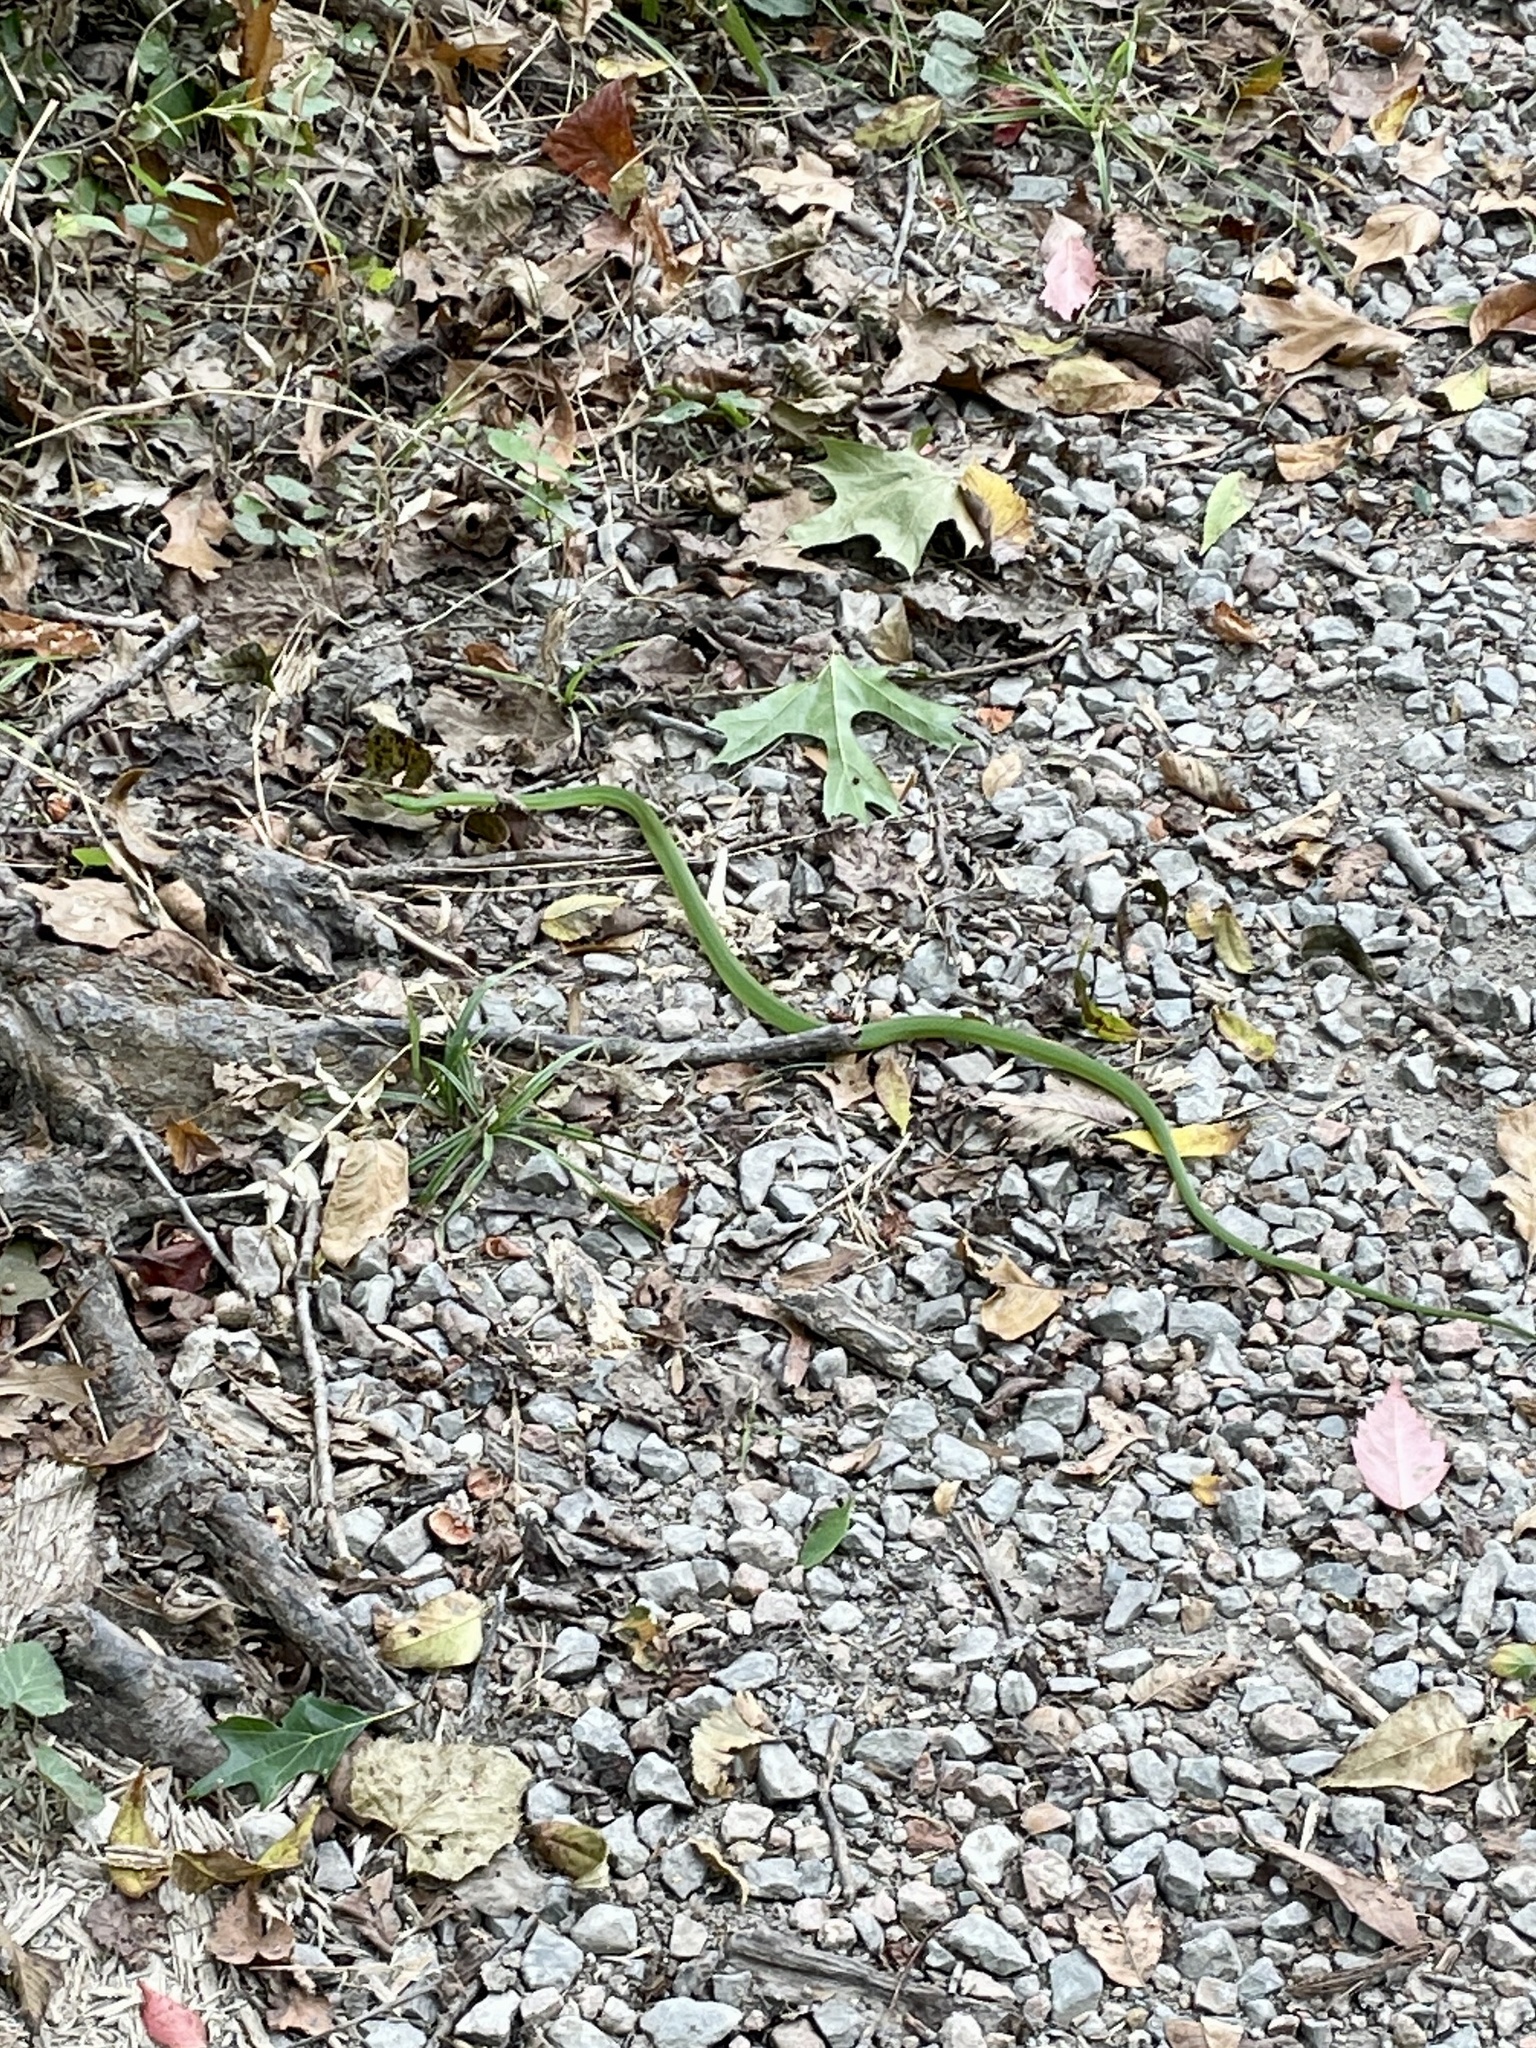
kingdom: Animalia
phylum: Chordata
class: Squamata
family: Colubridae
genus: Opheodrys
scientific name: Opheodrys aestivus
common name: Rough greensnake
